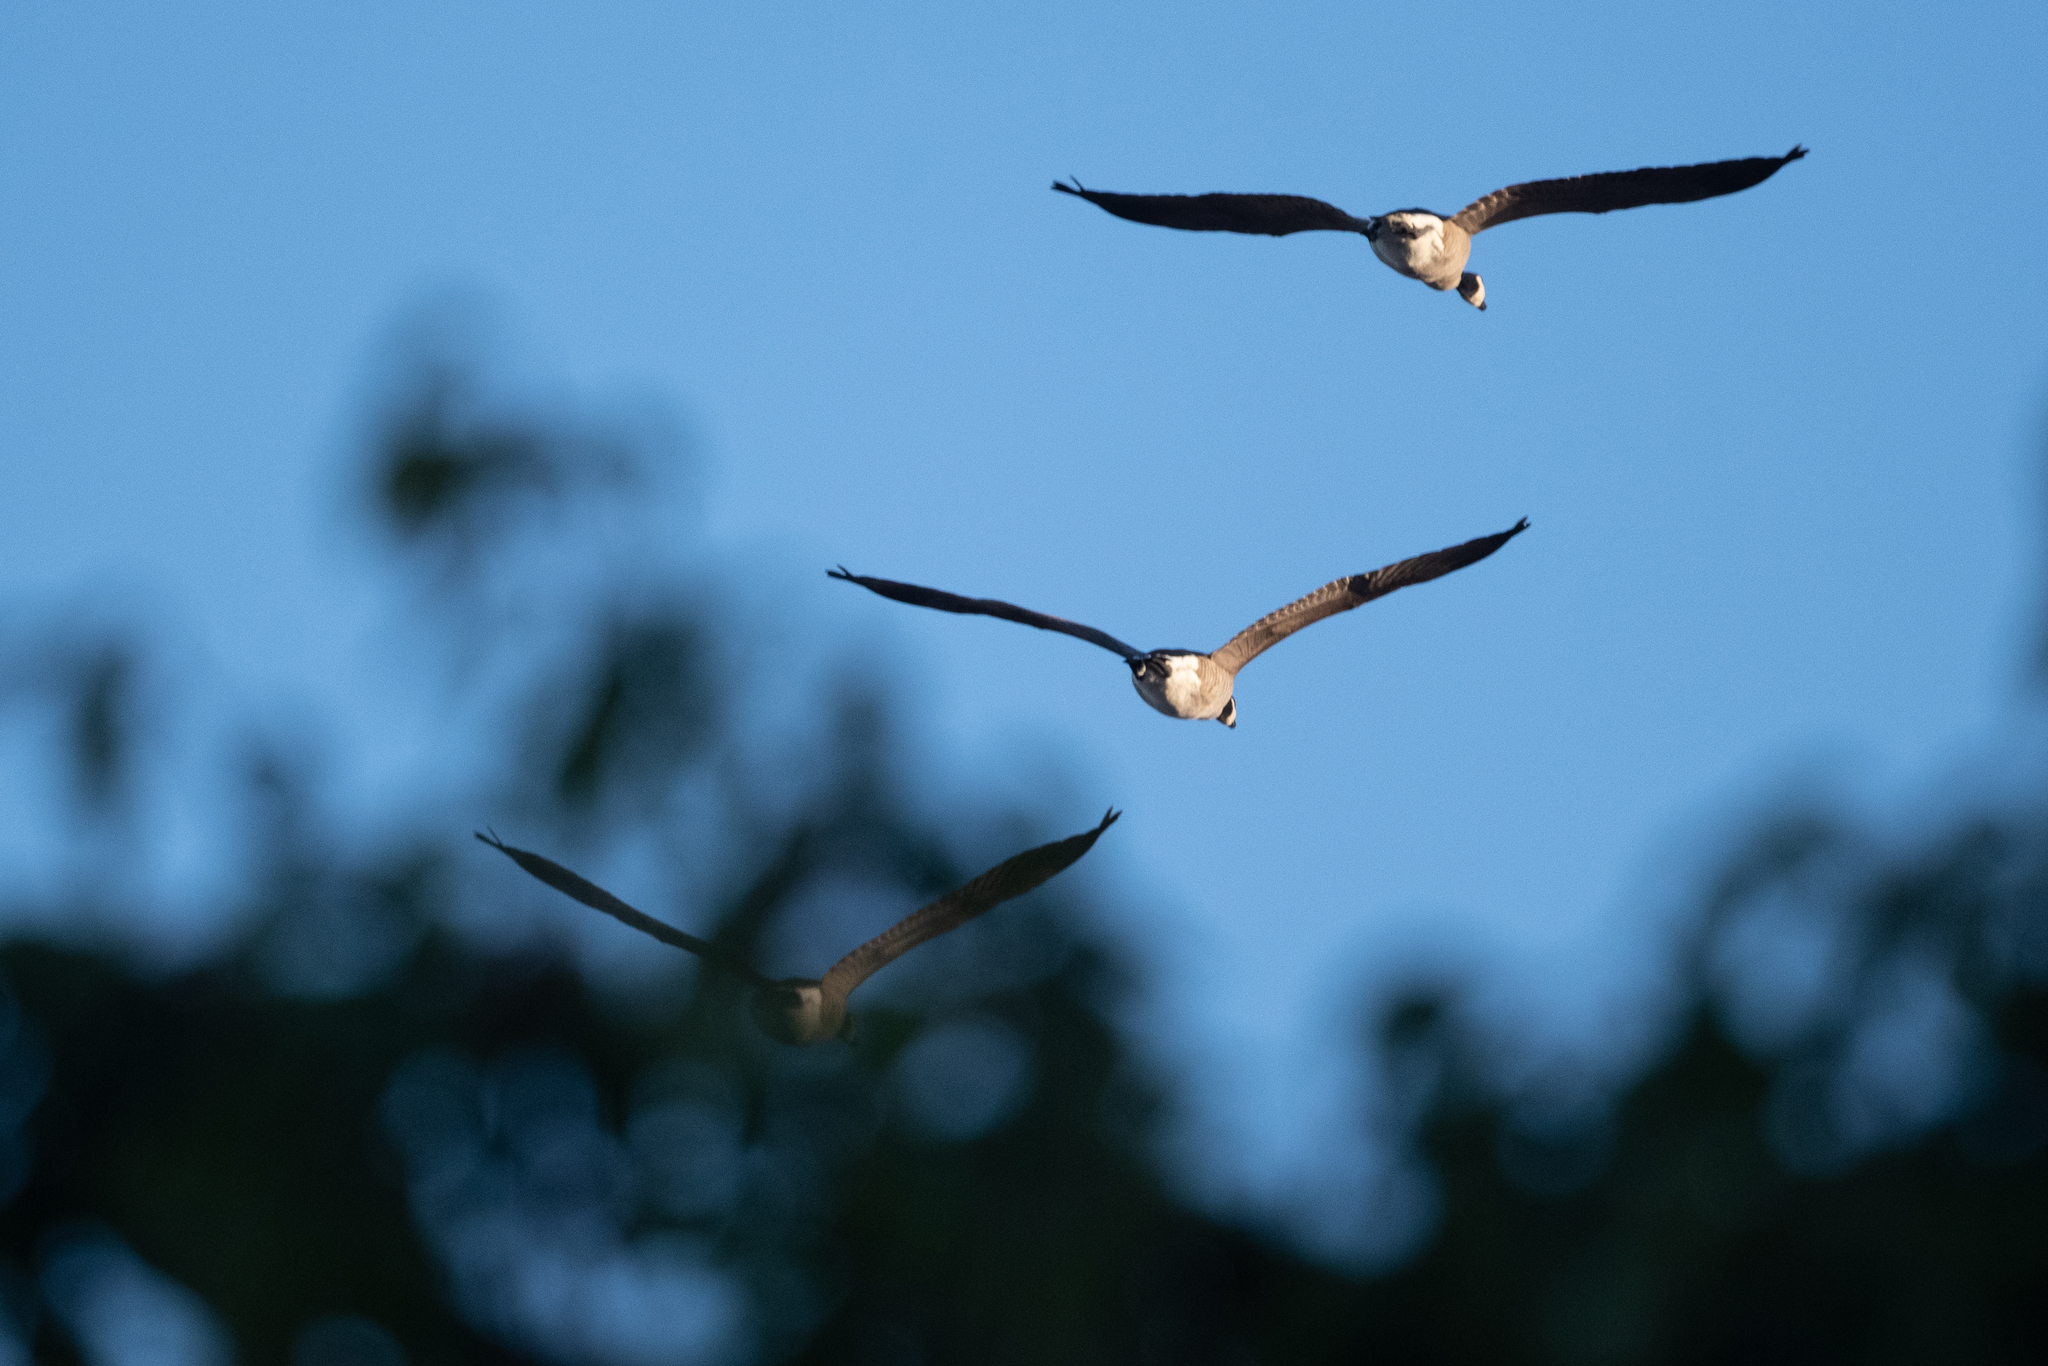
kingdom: Animalia
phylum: Chordata
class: Aves
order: Anseriformes
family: Anatidae
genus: Branta
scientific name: Branta canadensis
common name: Canada goose
